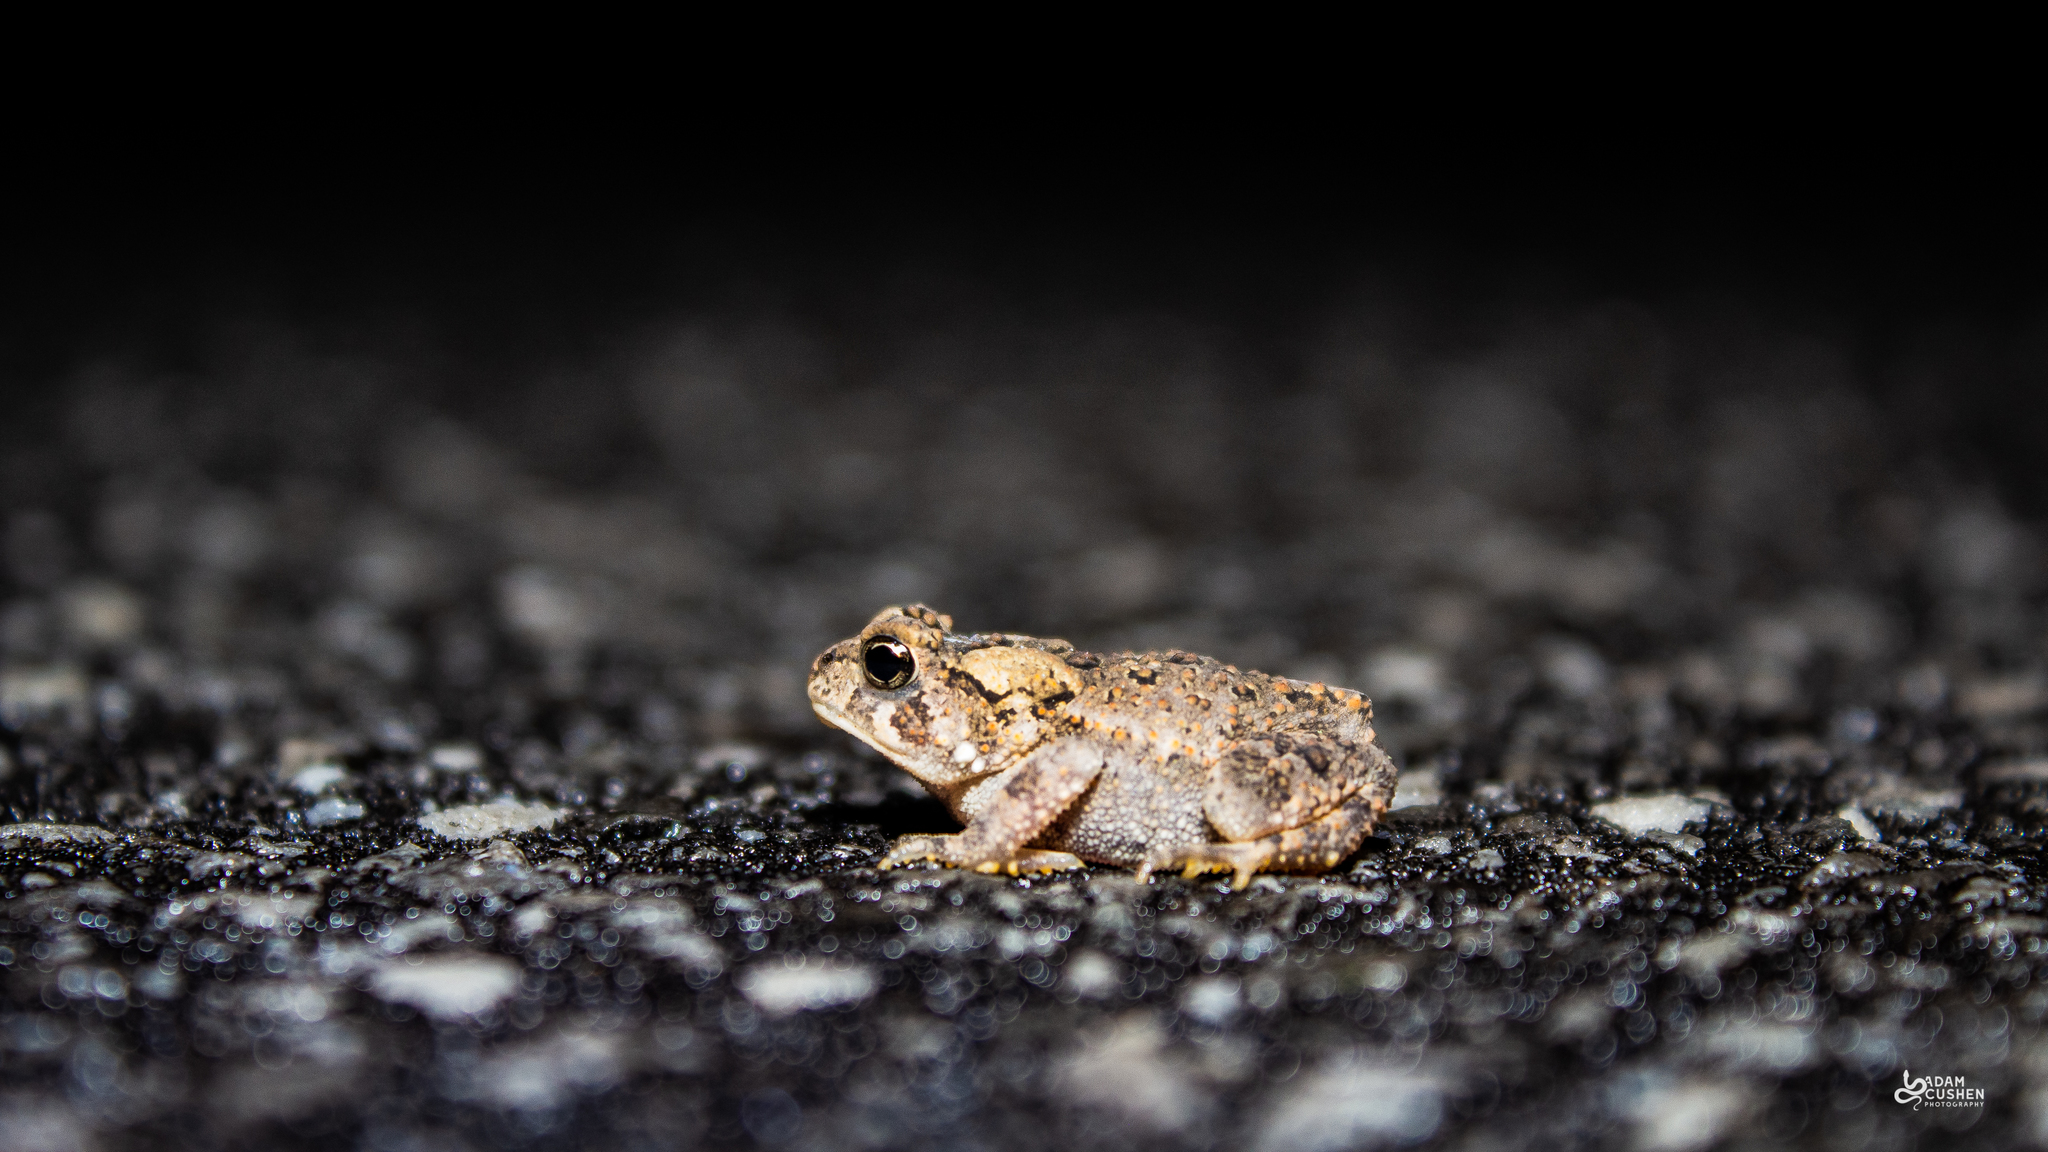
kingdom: Animalia
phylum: Chordata
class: Amphibia
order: Anura
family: Bufonidae
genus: Anaxyrus
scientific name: Anaxyrus americanus
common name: American toad
